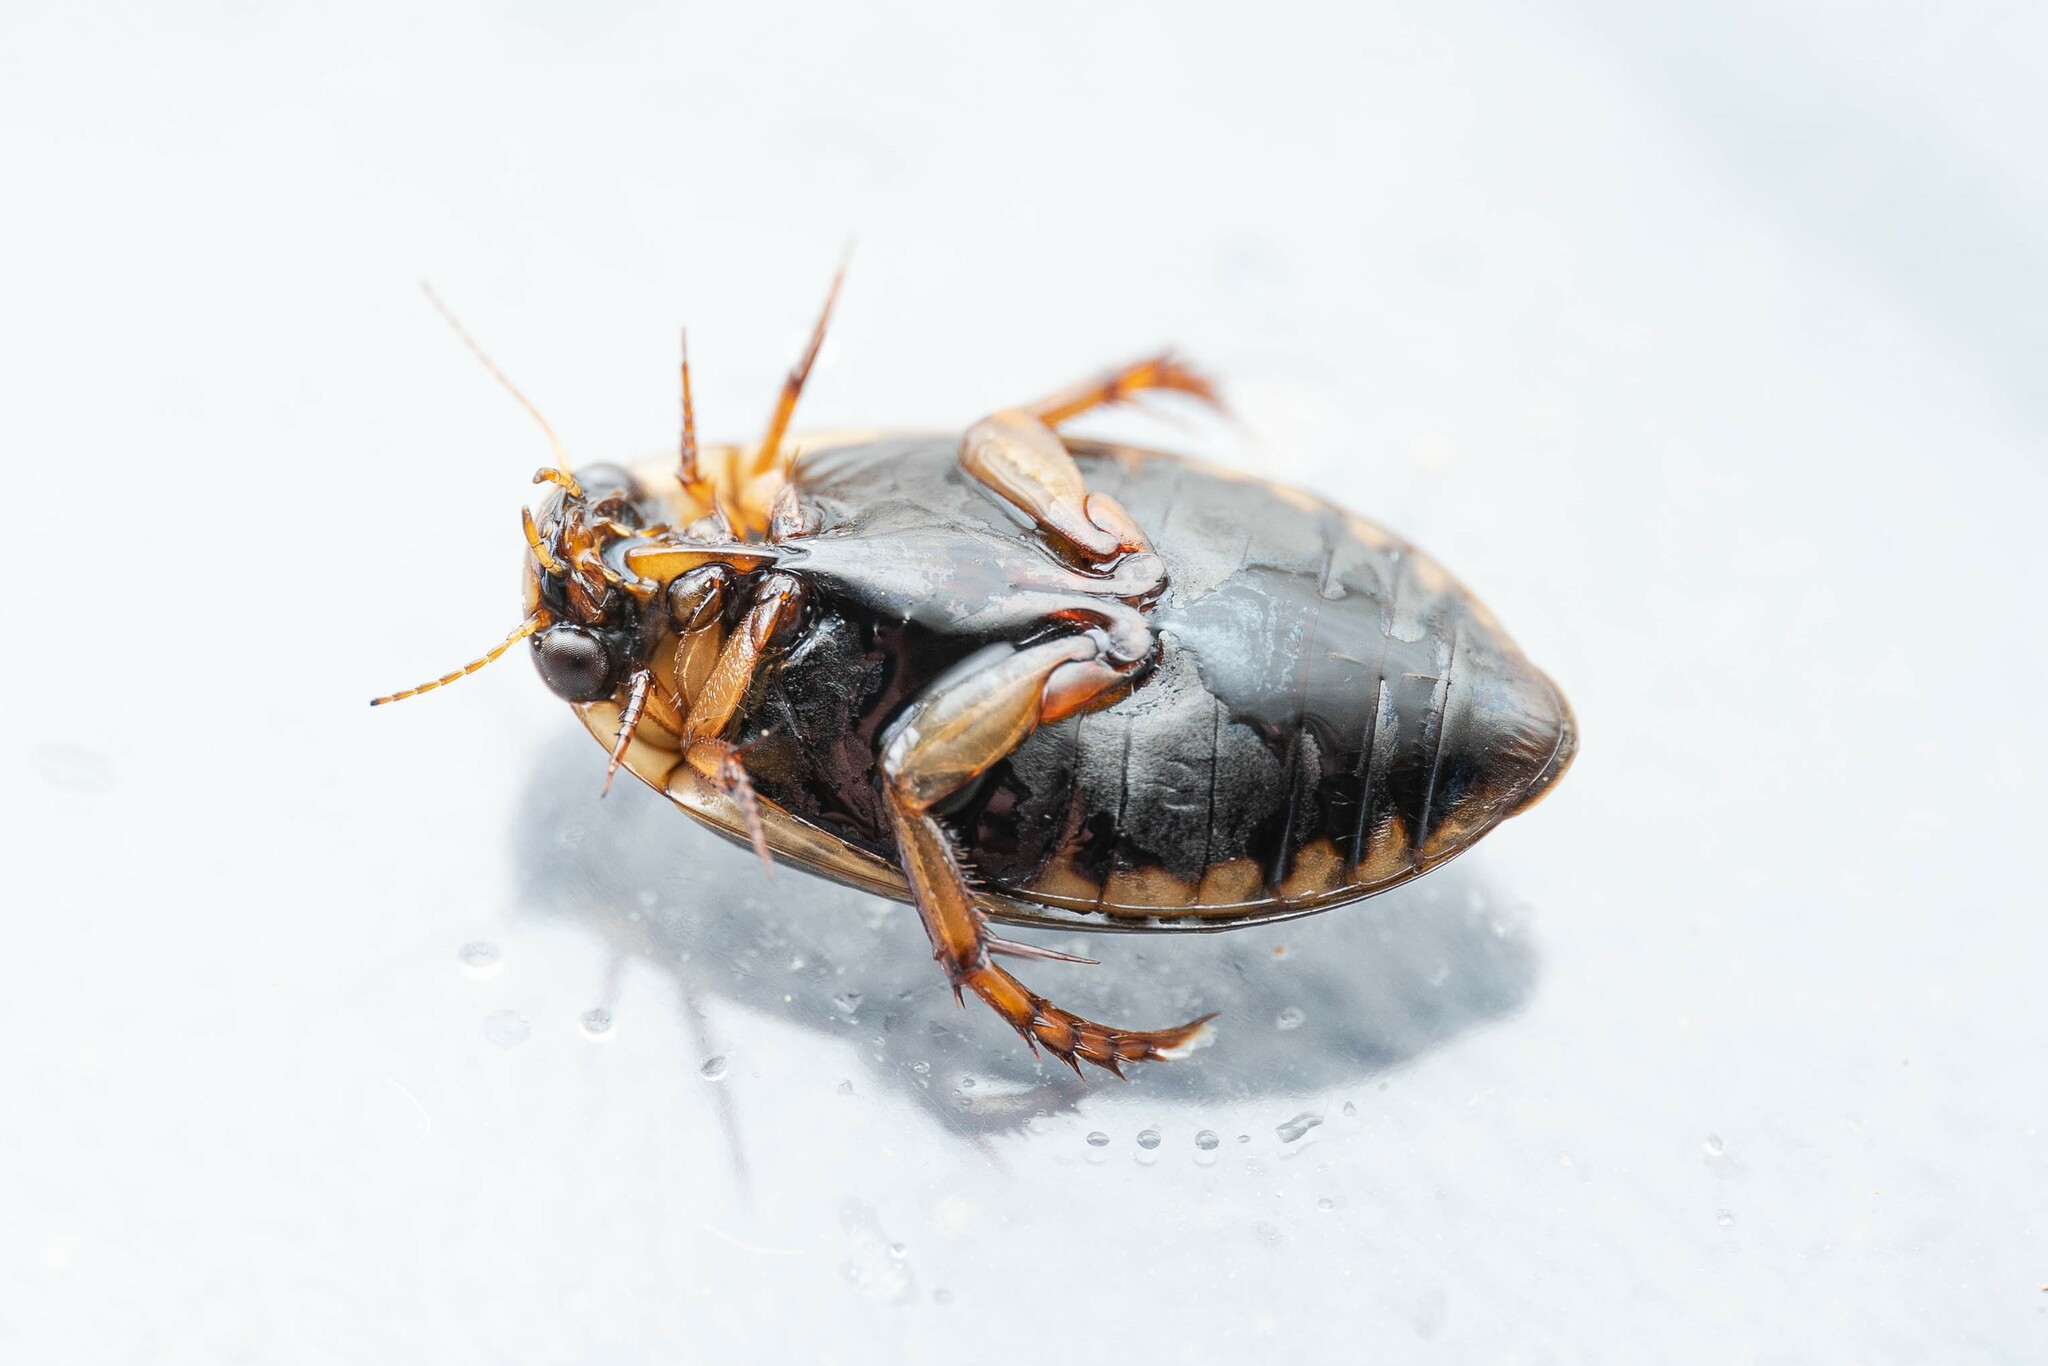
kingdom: Animalia
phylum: Arthropoda
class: Insecta
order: Coleoptera
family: Dytiscidae
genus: Rhantus
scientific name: Rhantus gutticollis
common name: Predaceous diving beetle
